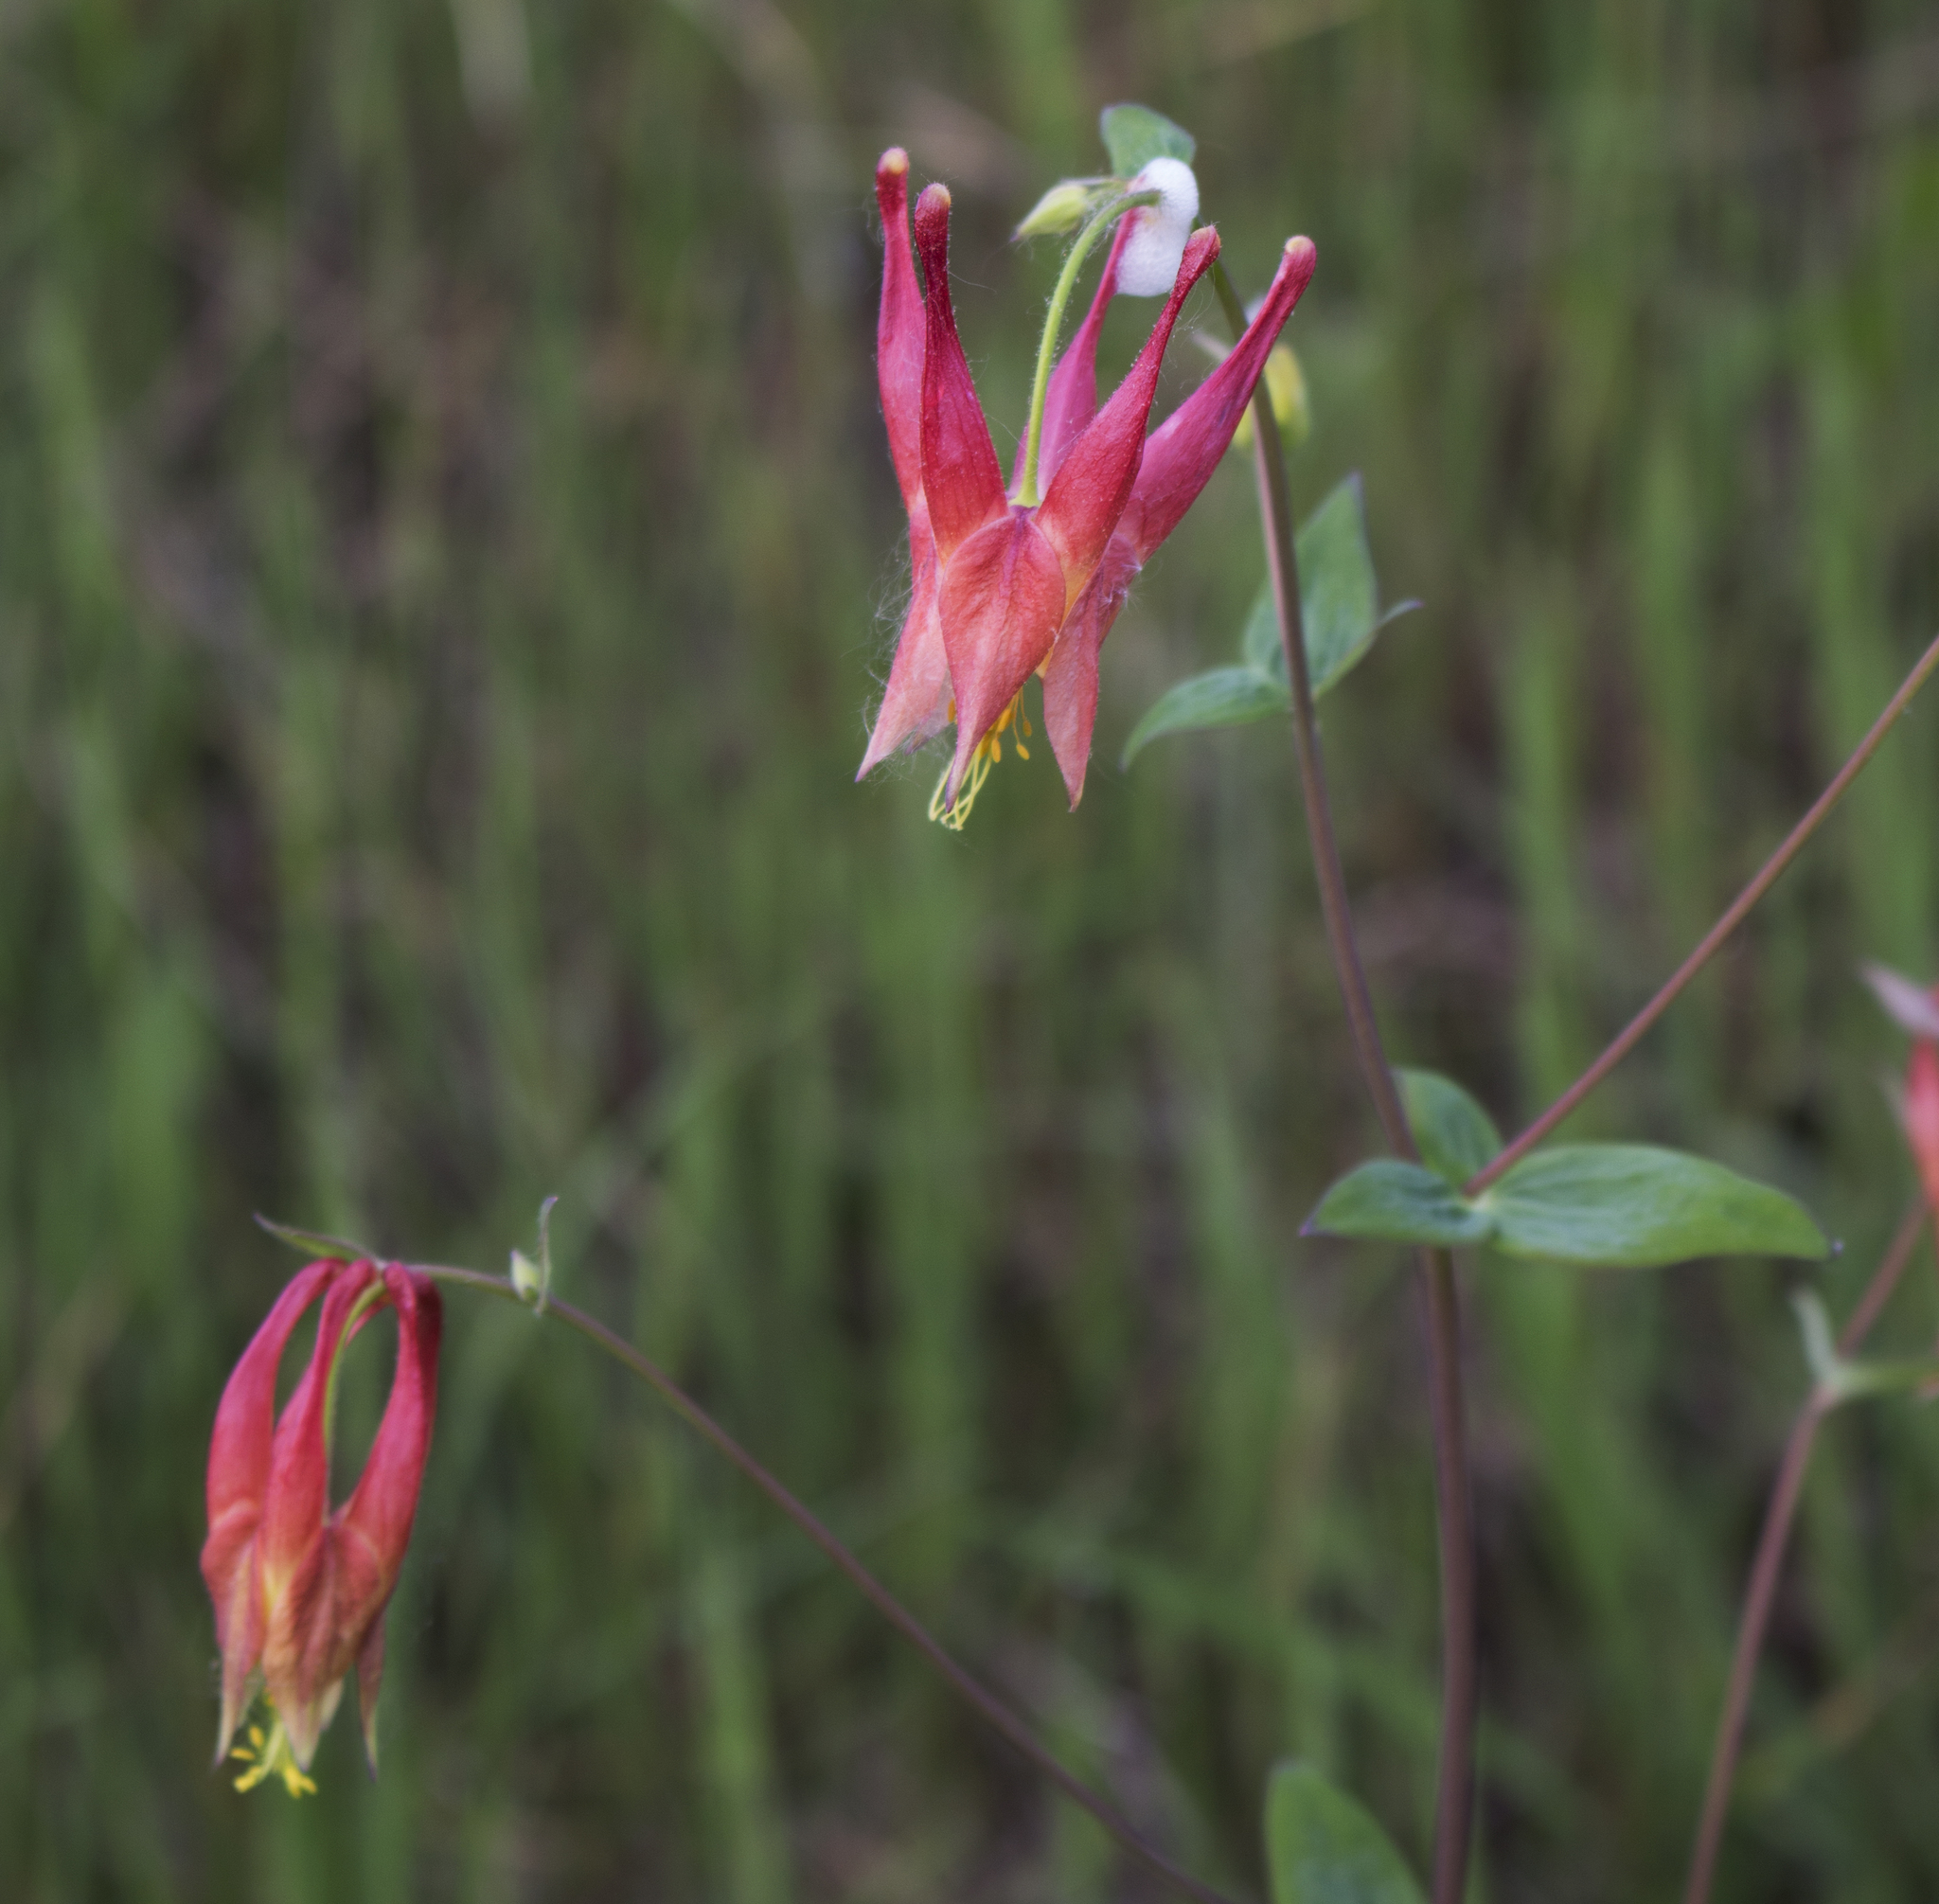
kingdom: Plantae
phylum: Tracheophyta
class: Magnoliopsida
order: Ranunculales
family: Ranunculaceae
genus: Aquilegia
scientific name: Aquilegia canadensis
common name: American columbine
